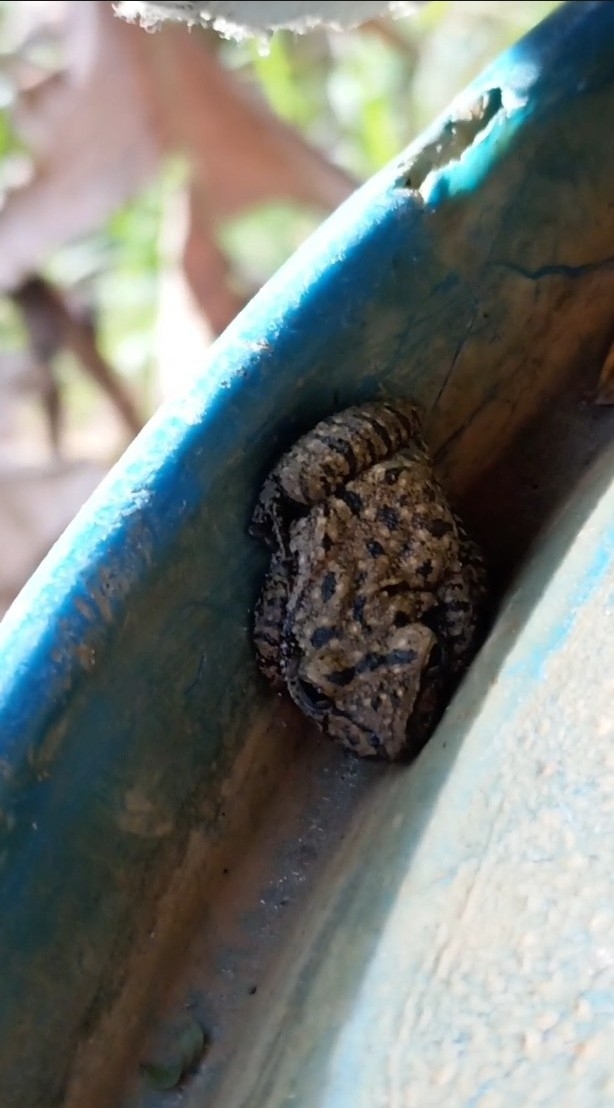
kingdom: Animalia
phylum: Chordata
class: Amphibia
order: Anura
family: Hylidae
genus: Scinax
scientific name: Scinax fuscovarius
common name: Fuscous-blotched treefrog
